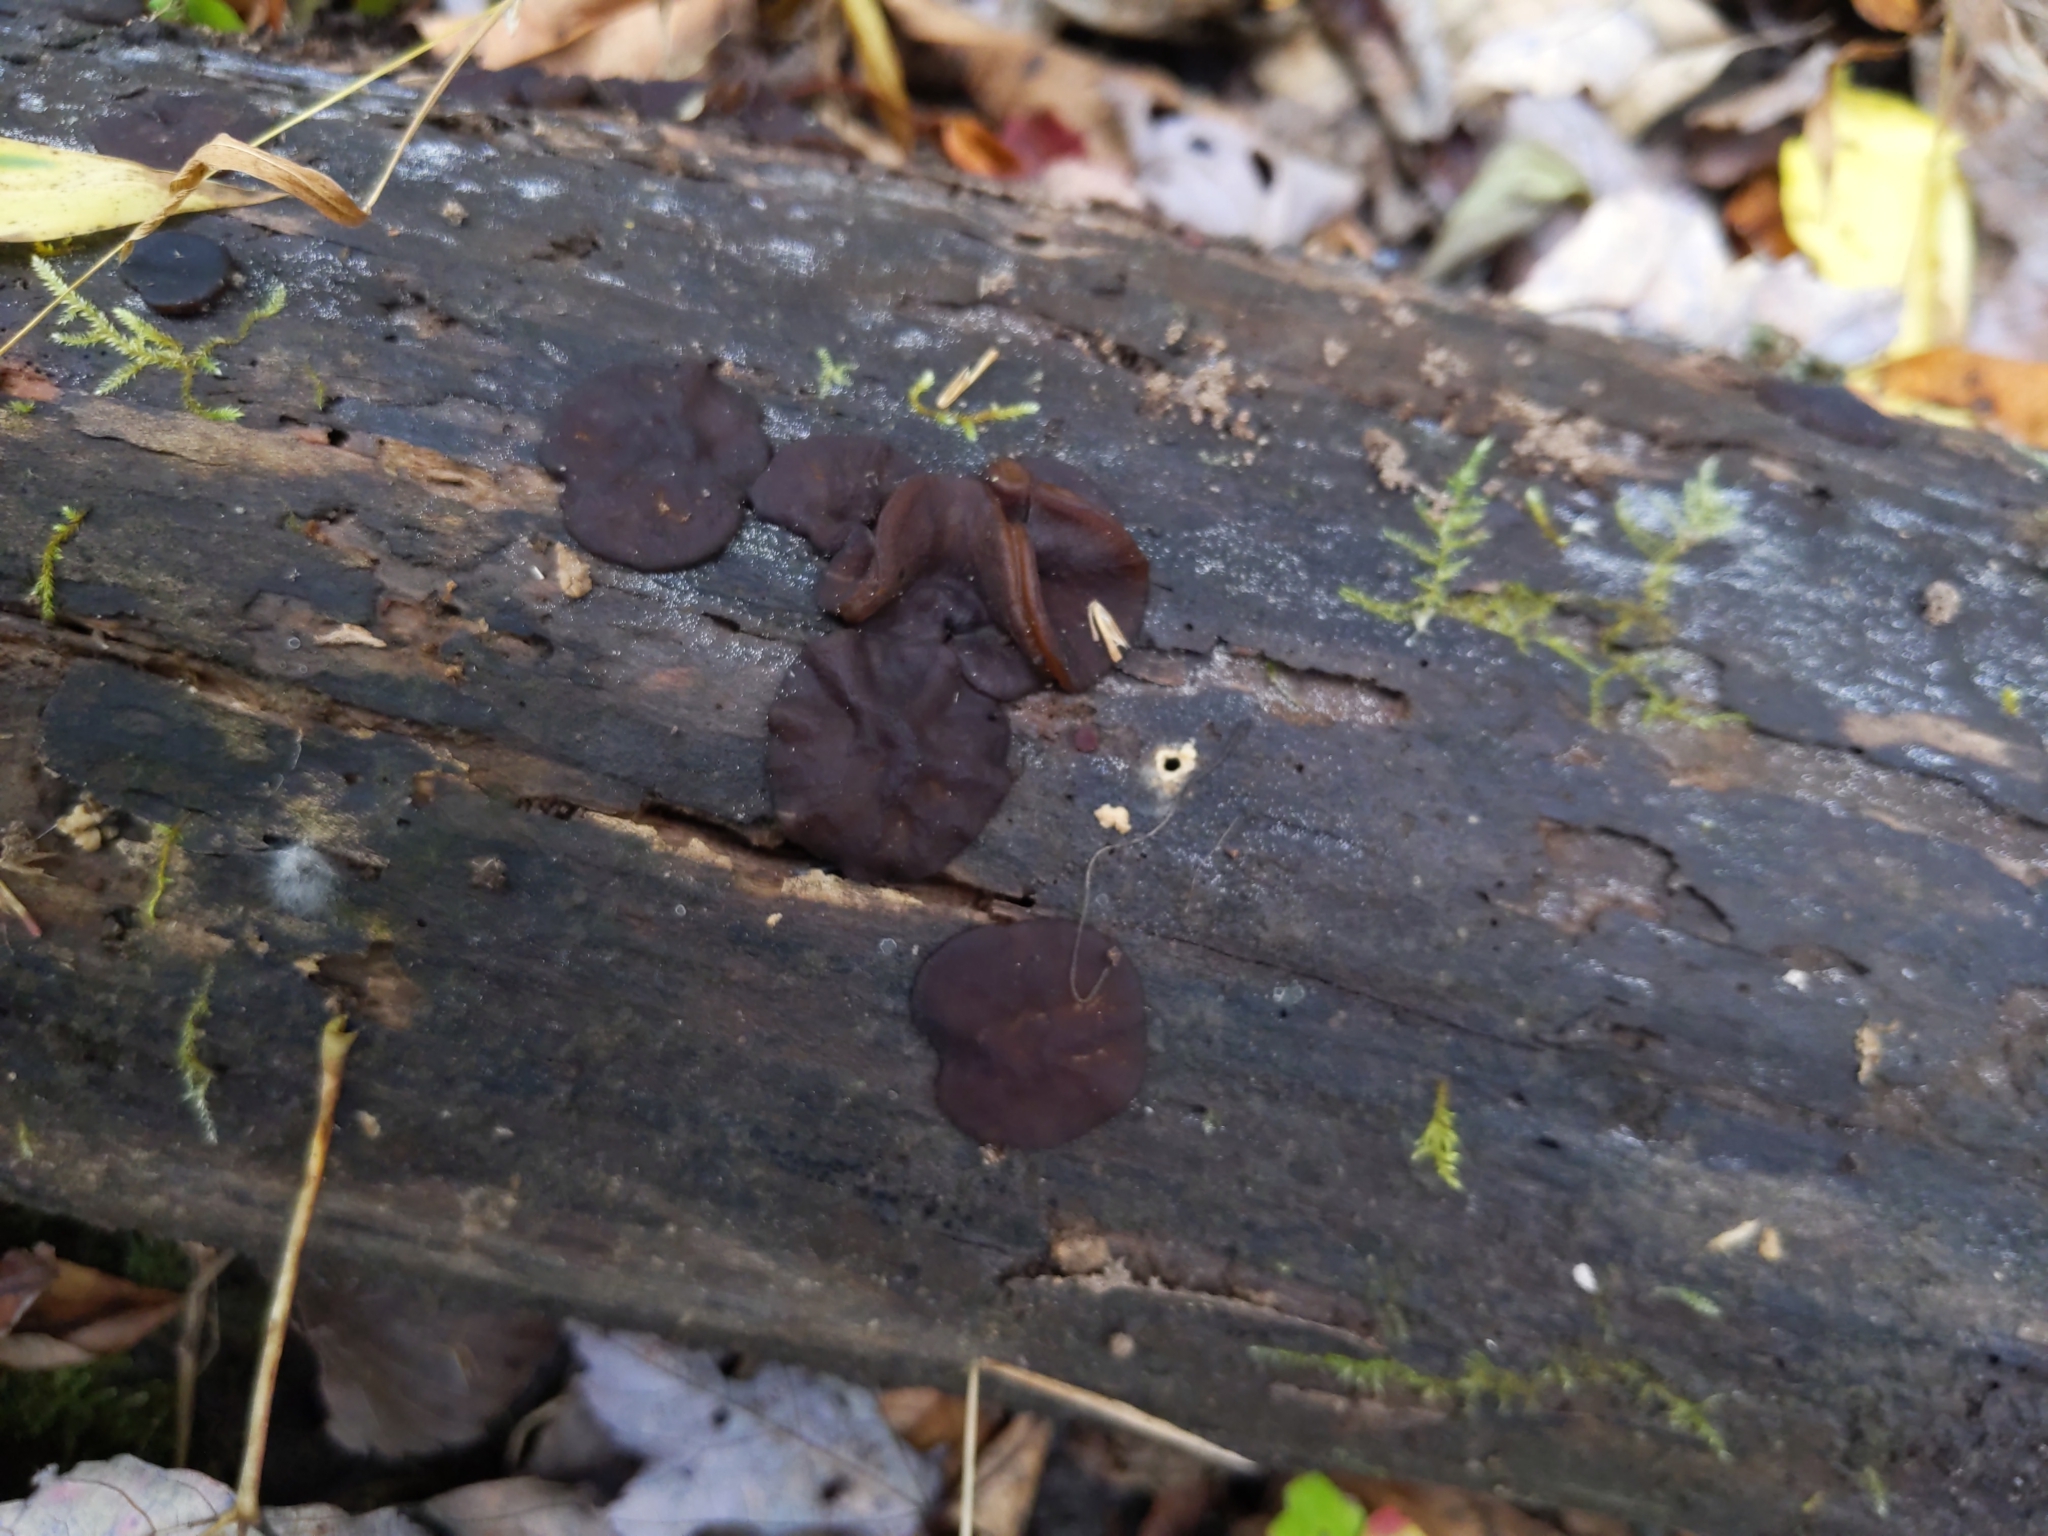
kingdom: Fungi
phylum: Ascomycota
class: Pezizomycetes
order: Pezizales
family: Pezizaceae
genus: Pachyella
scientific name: Pachyella clypeata
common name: Copper penny fungus
